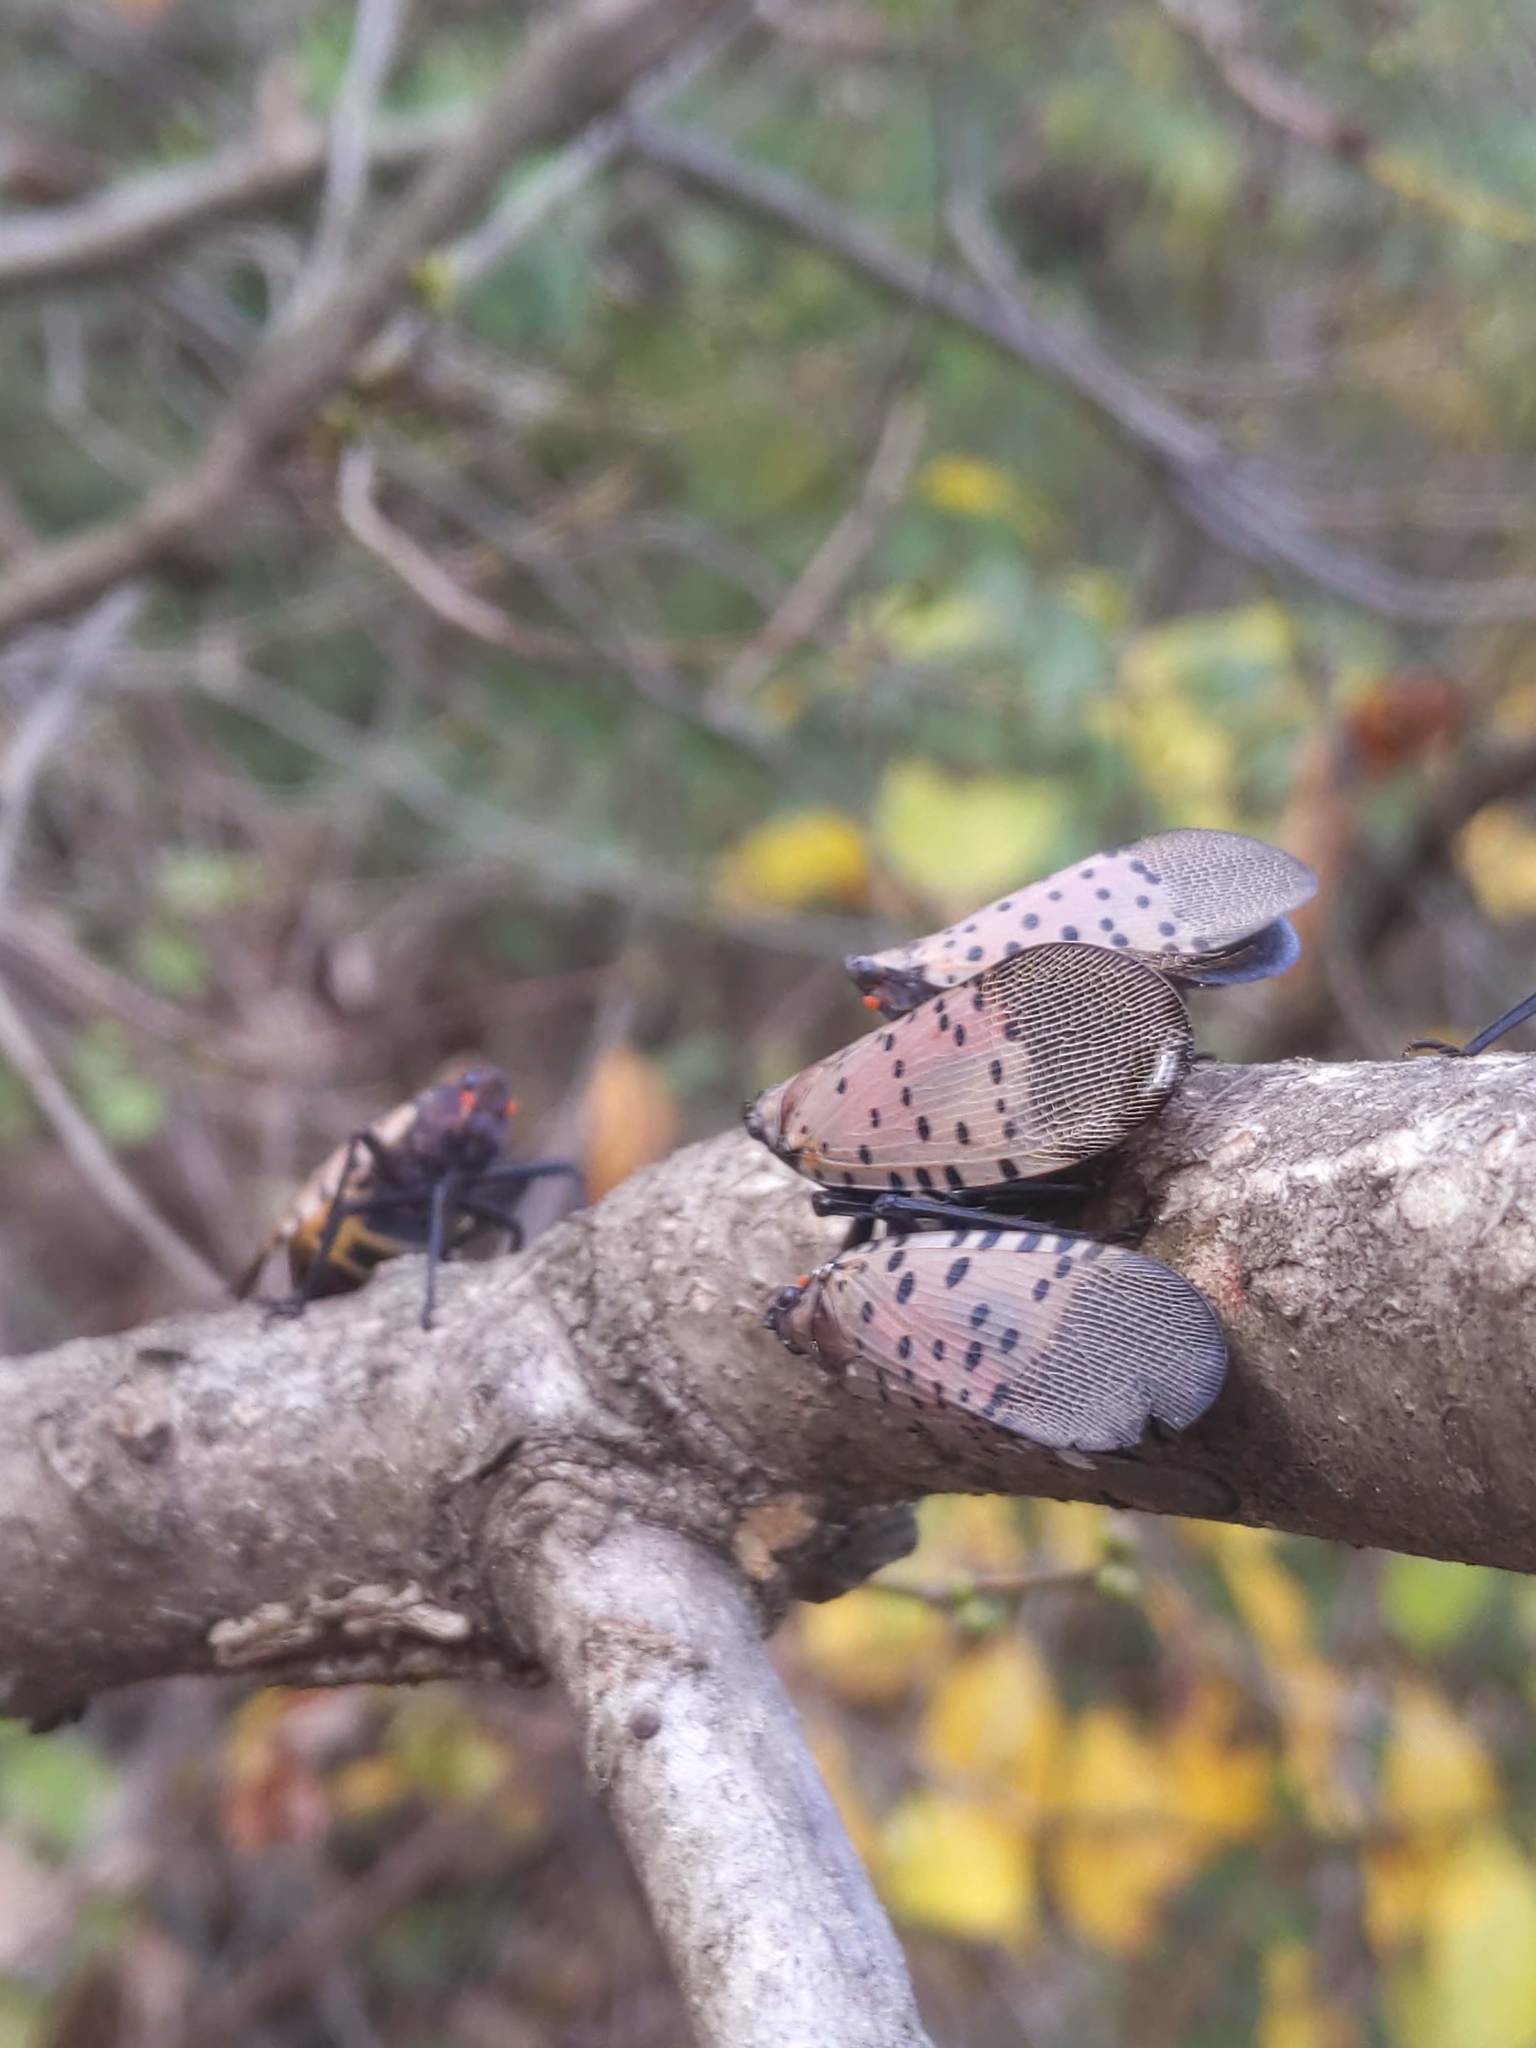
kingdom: Animalia
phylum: Arthropoda
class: Insecta
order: Hemiptera
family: Fulgoridae
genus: Lycorma
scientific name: Lycorma delicatula
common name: Spotted lanternfly
